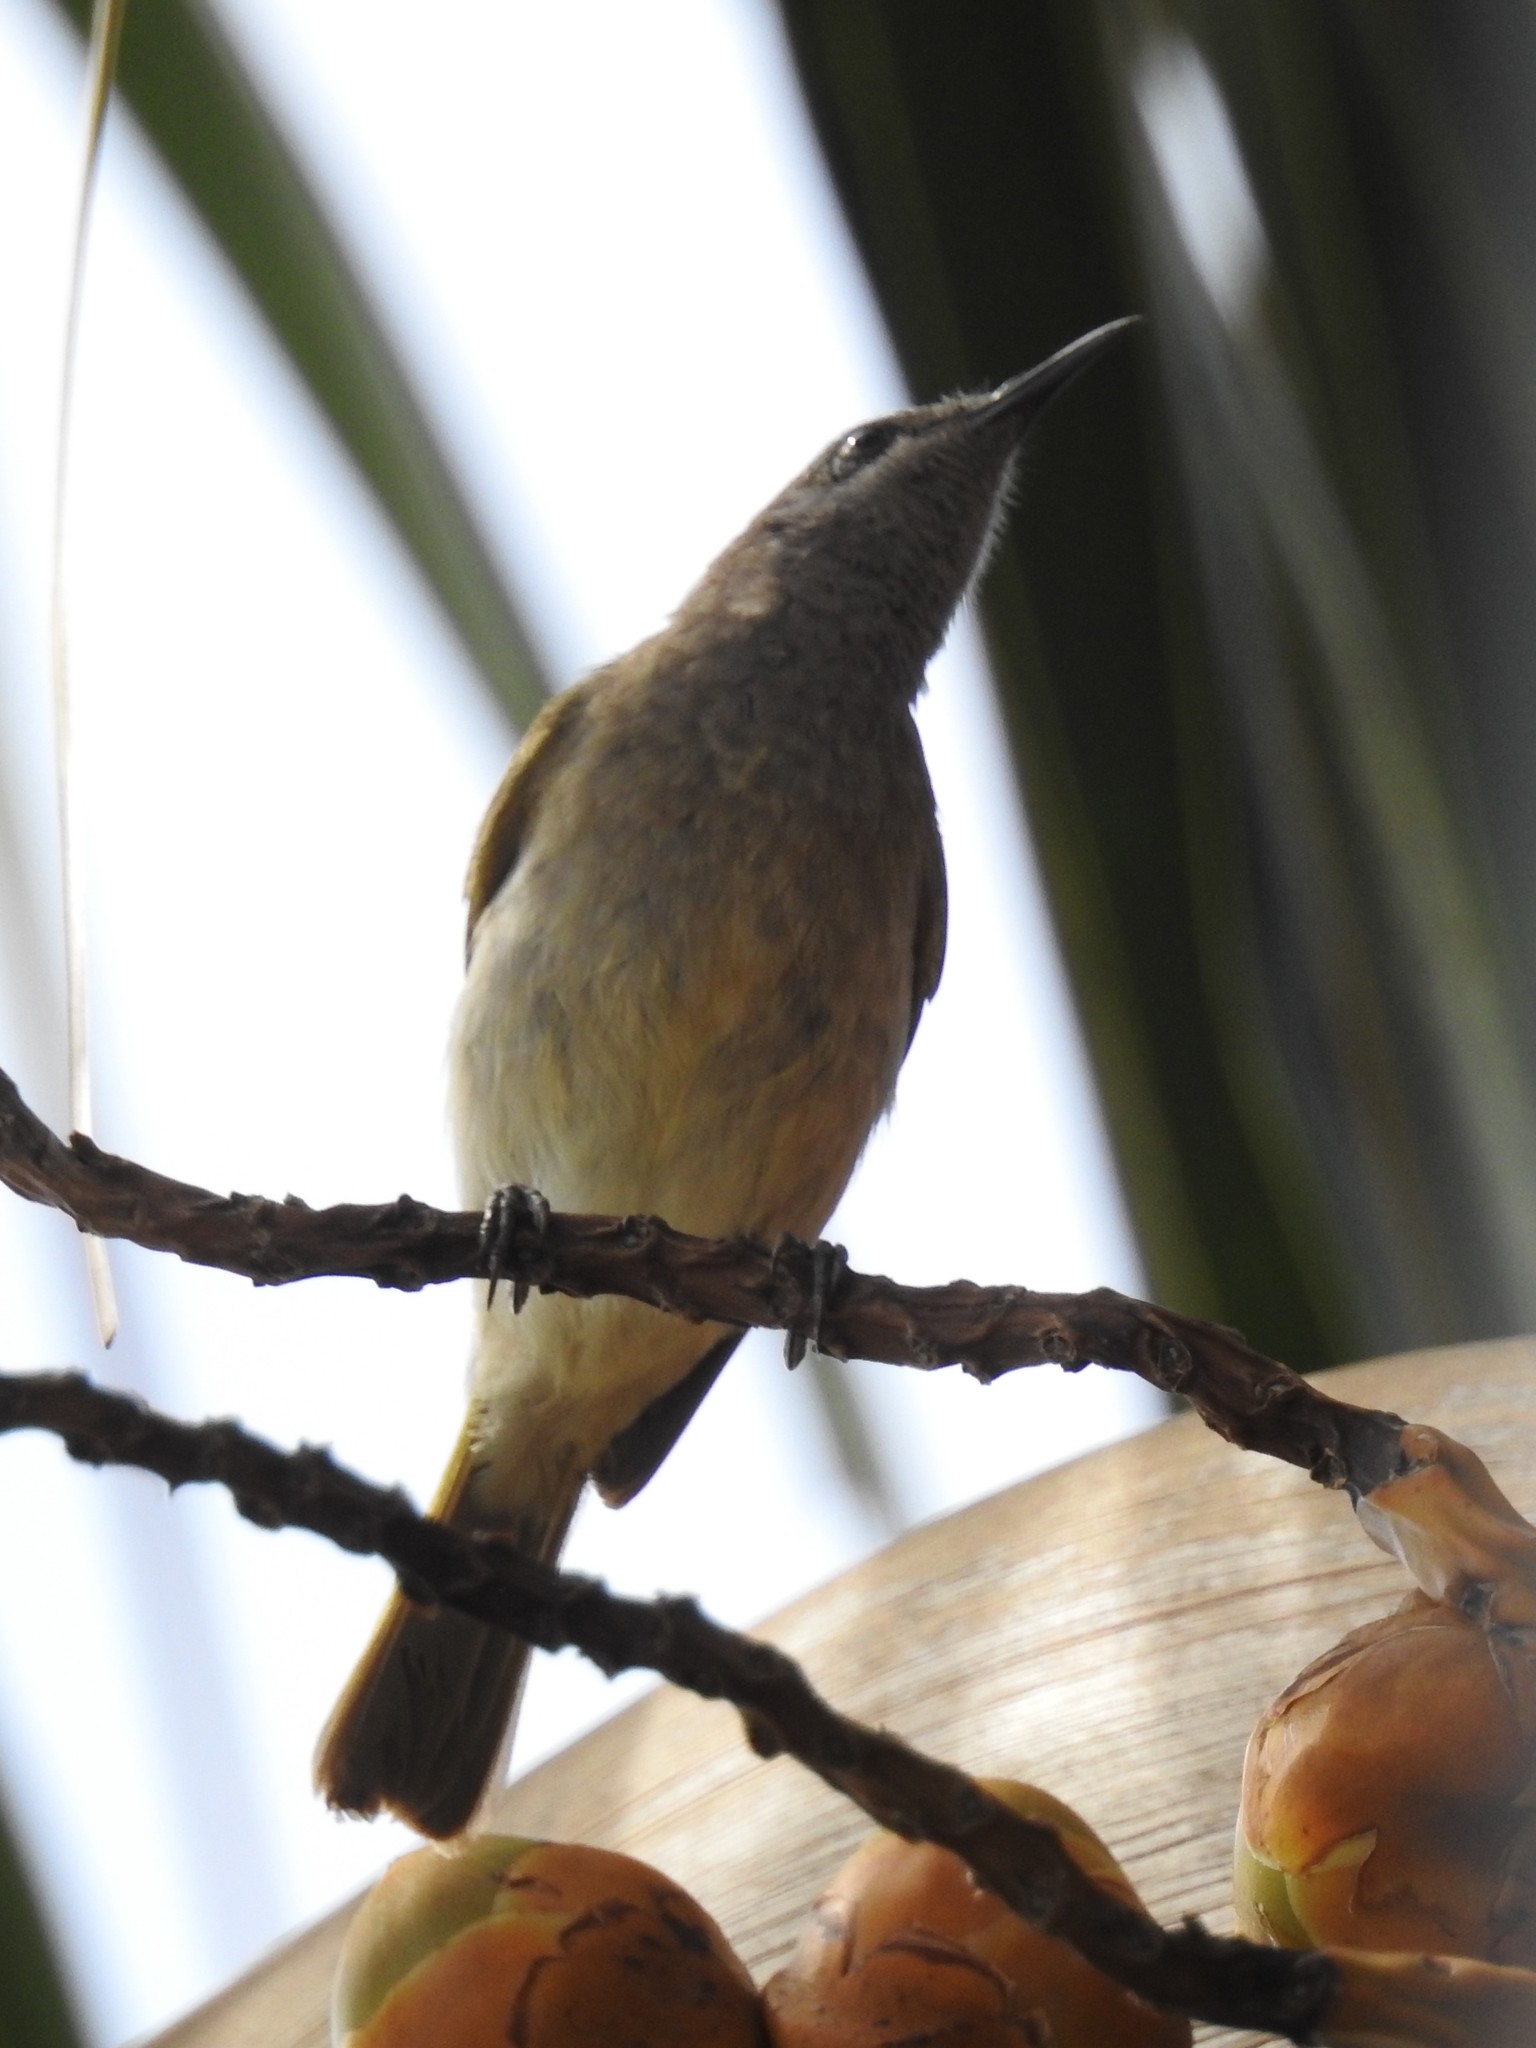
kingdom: Animalia
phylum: Chordata
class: Aves
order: Passeriformes
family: Meliphagidae
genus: Lichmera
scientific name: Lichmera indistincta
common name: Brown honeyeater
